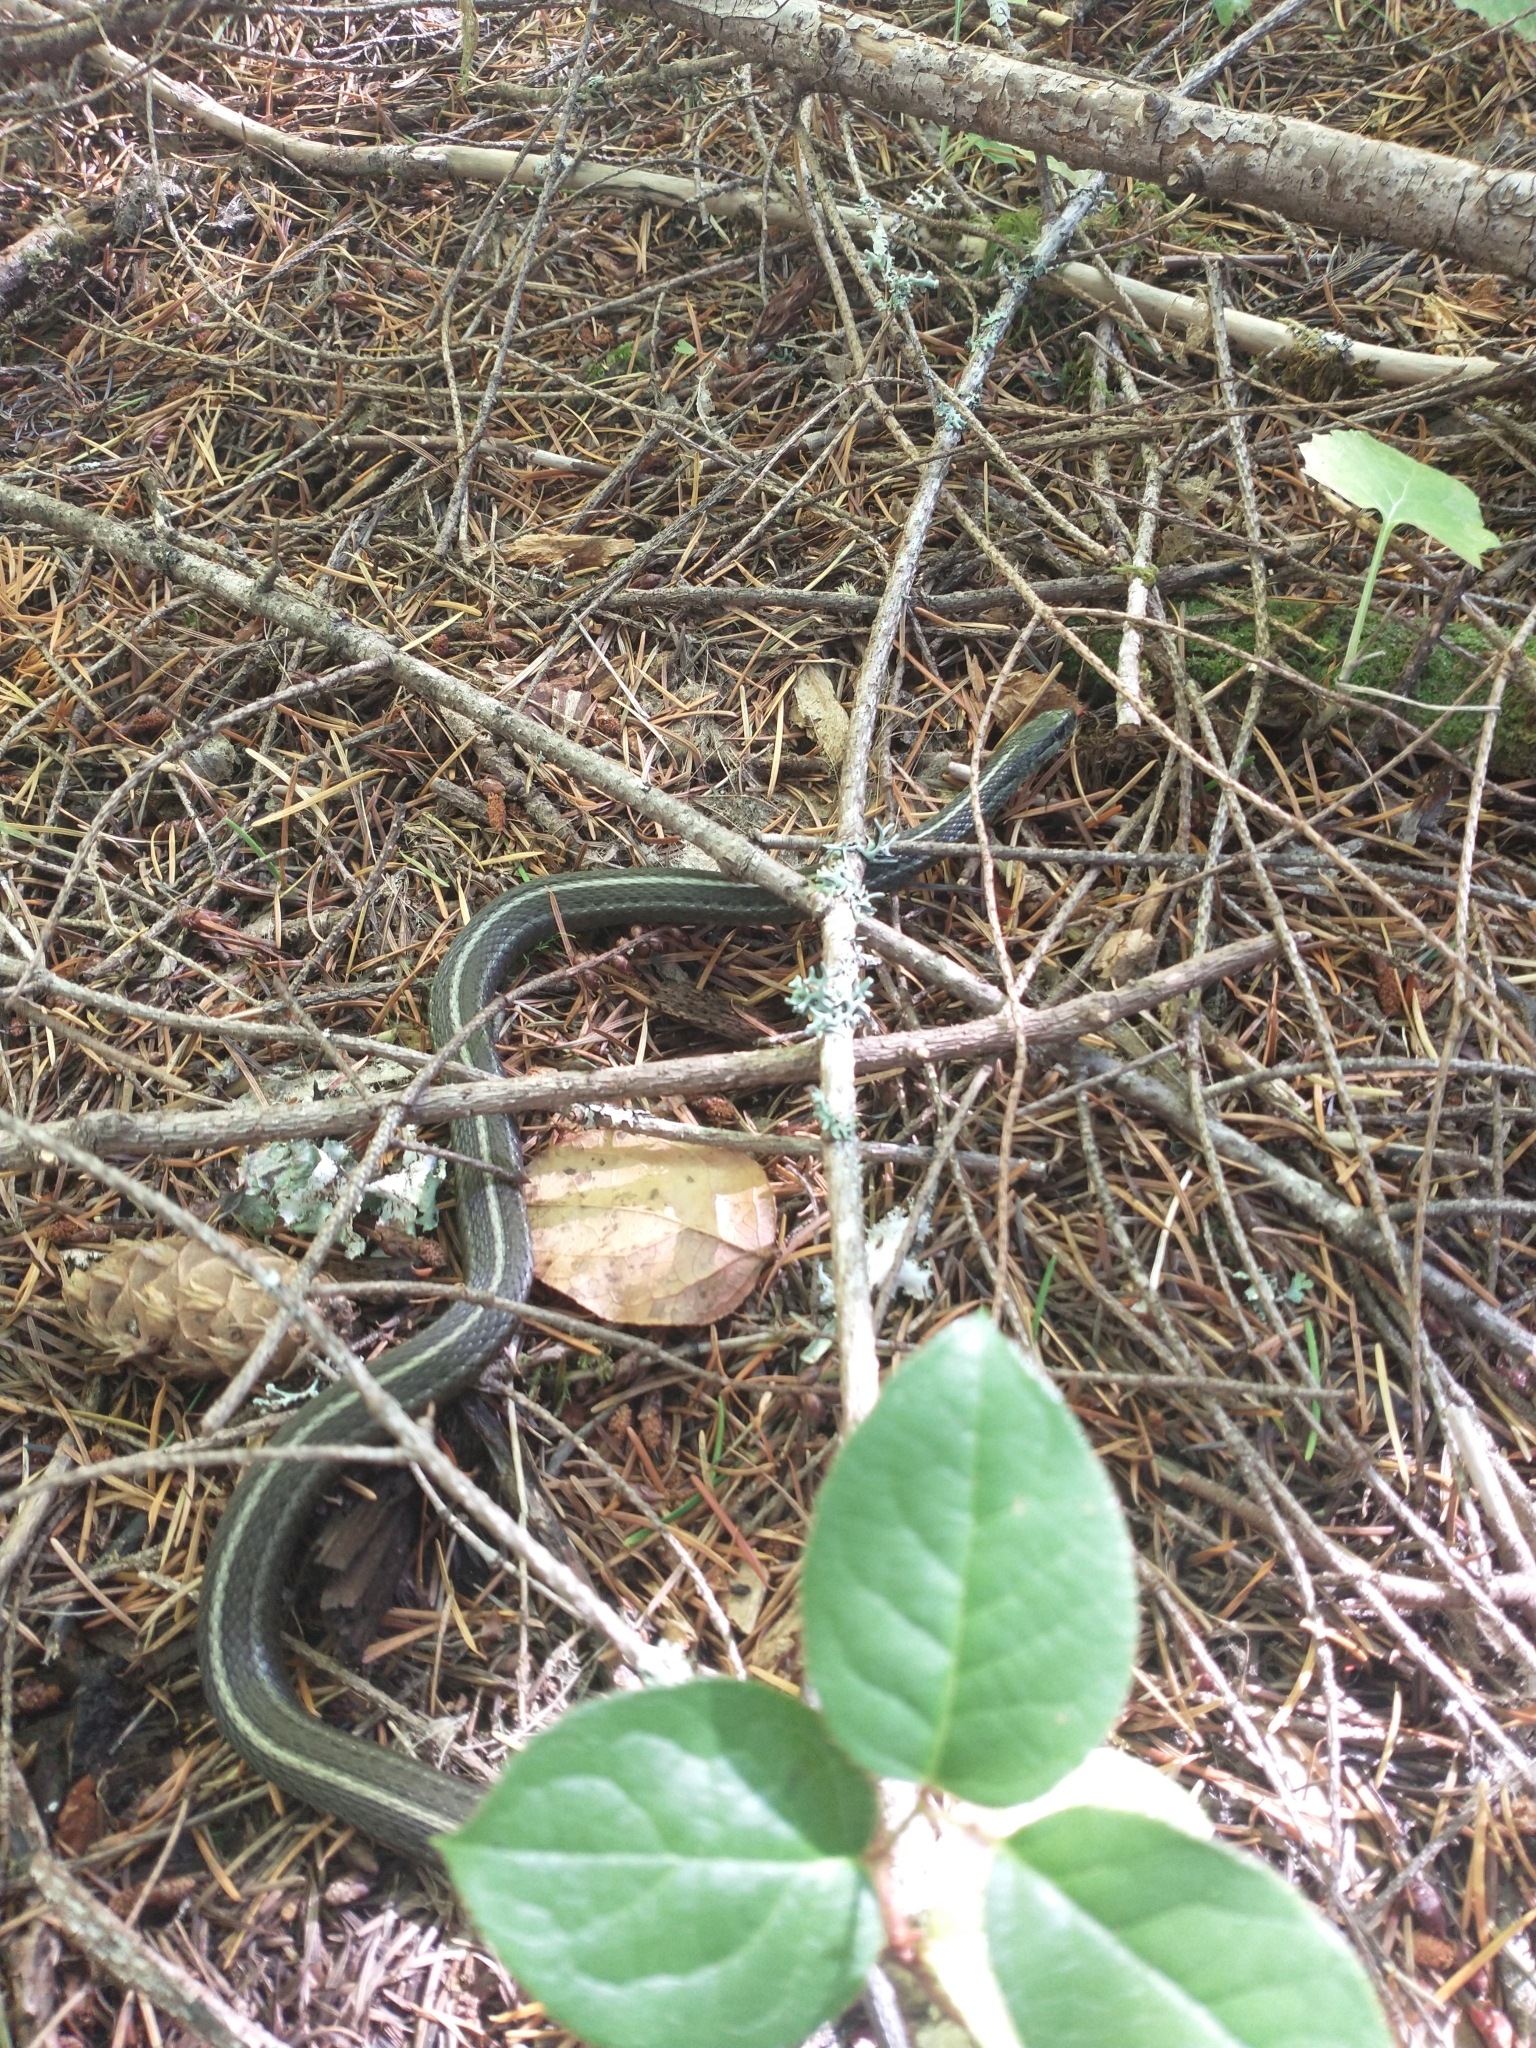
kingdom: Animalia
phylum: Chordata
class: Squamata
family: Colubridae
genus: Thamnophis
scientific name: Thamnophis ordinoides
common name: Northwestern garter snake
